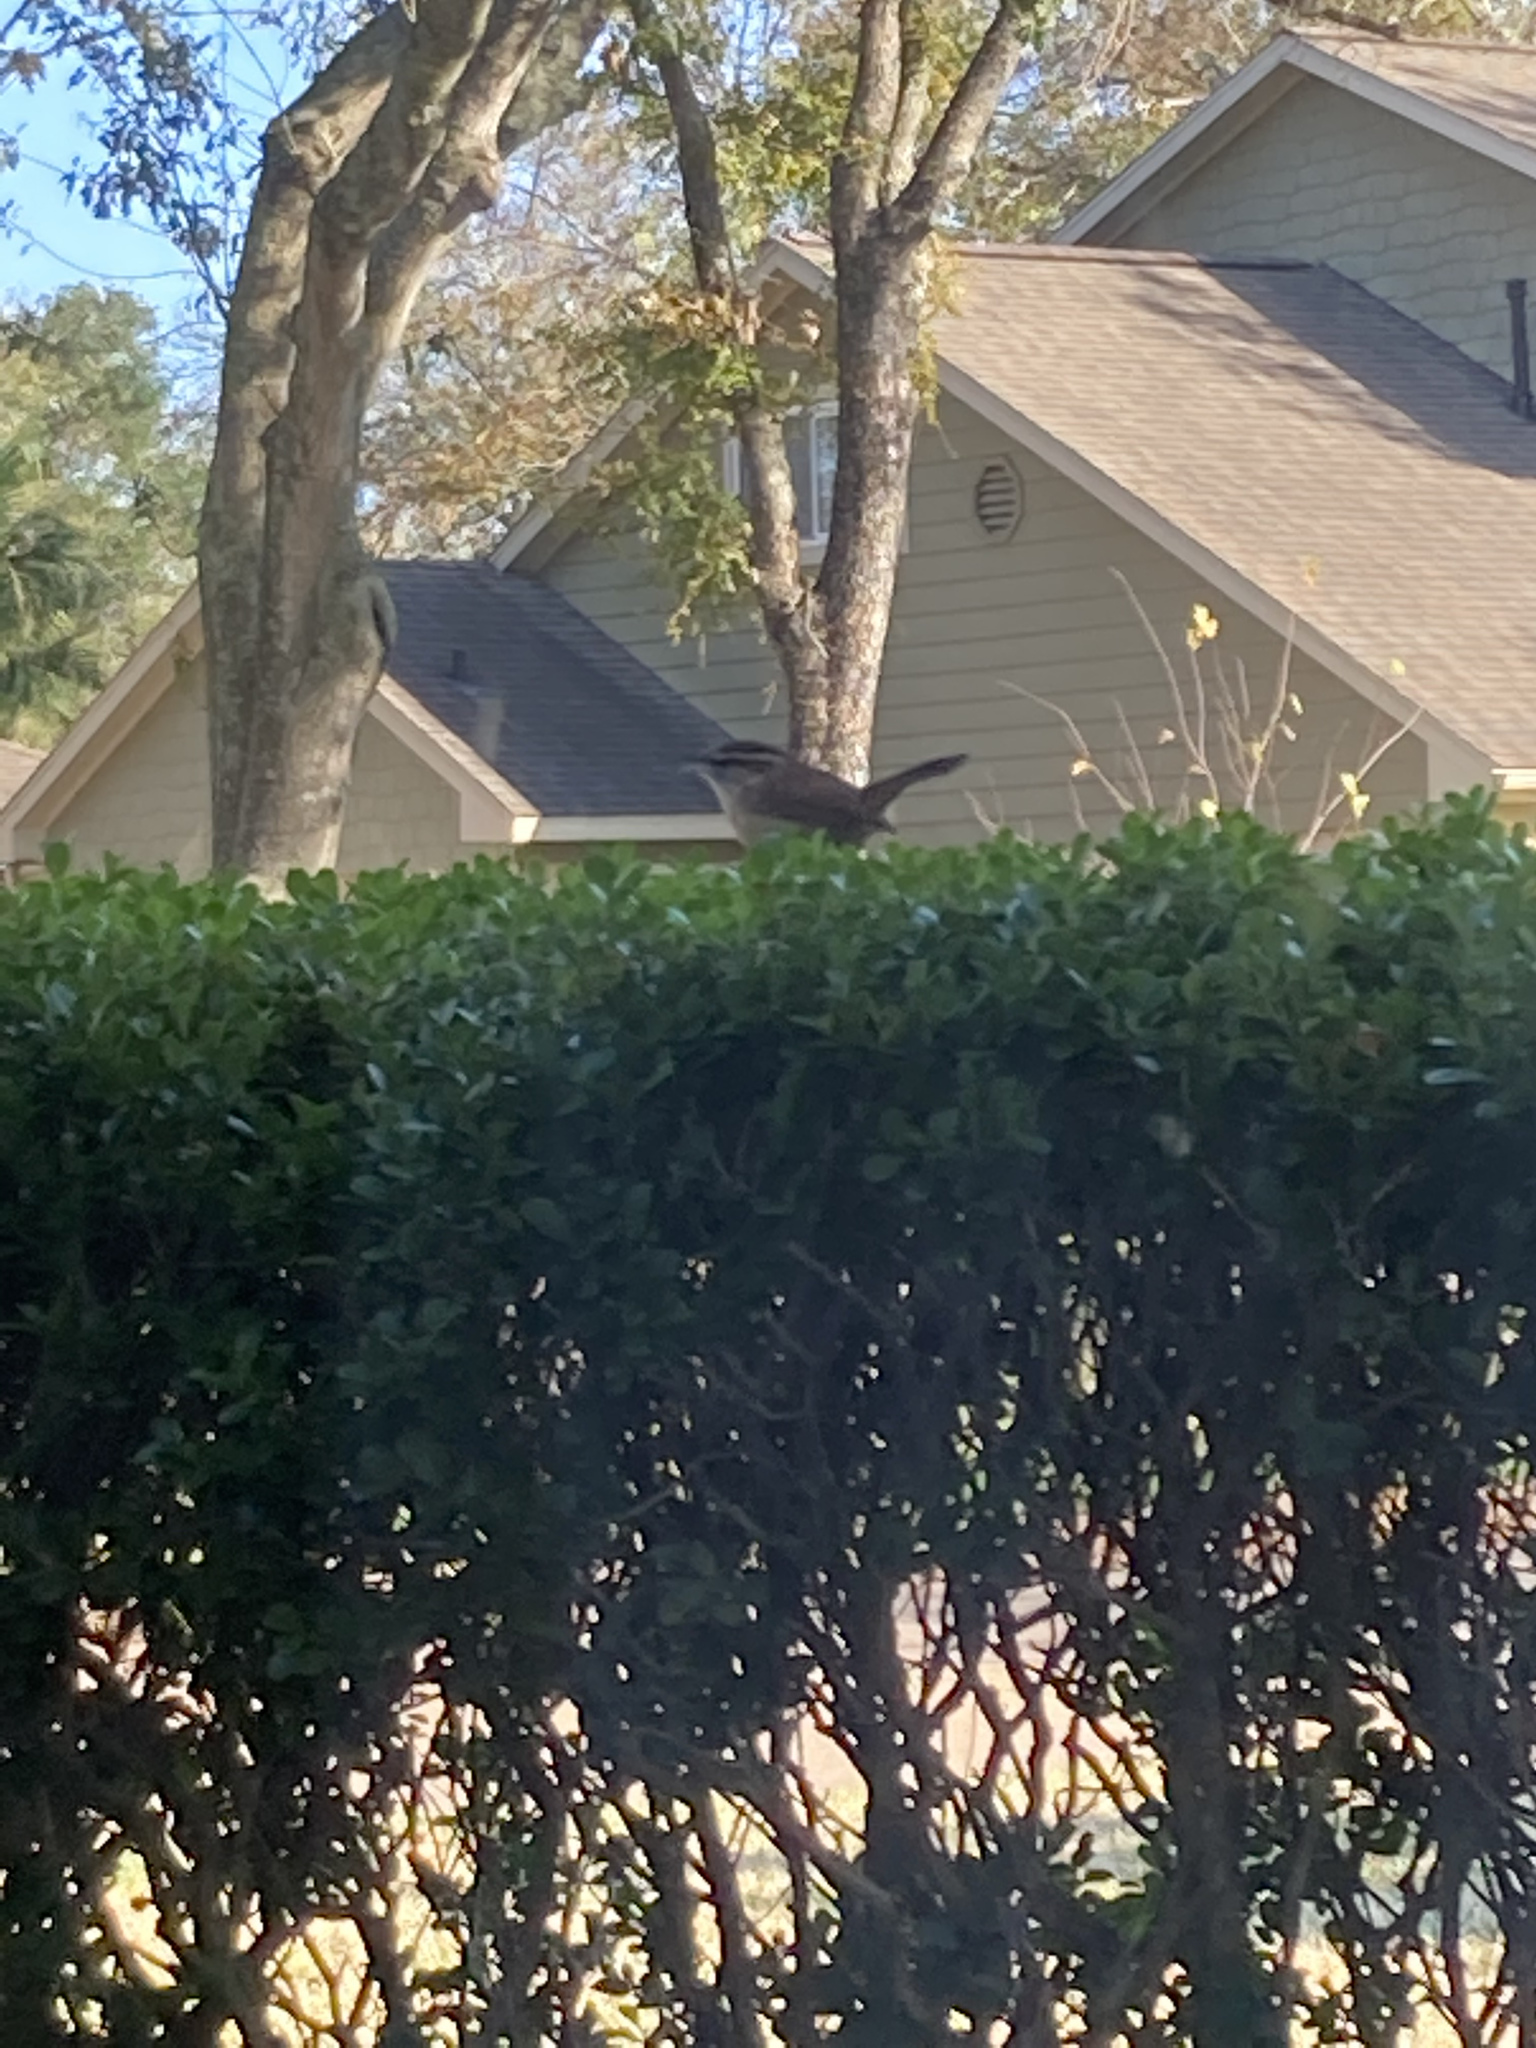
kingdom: Animalia
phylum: Chordata
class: Aves
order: Passeriformes
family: Troglodytidae
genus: Thryothorus
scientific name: Thryothorus ludovicianus
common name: Carolina wren
